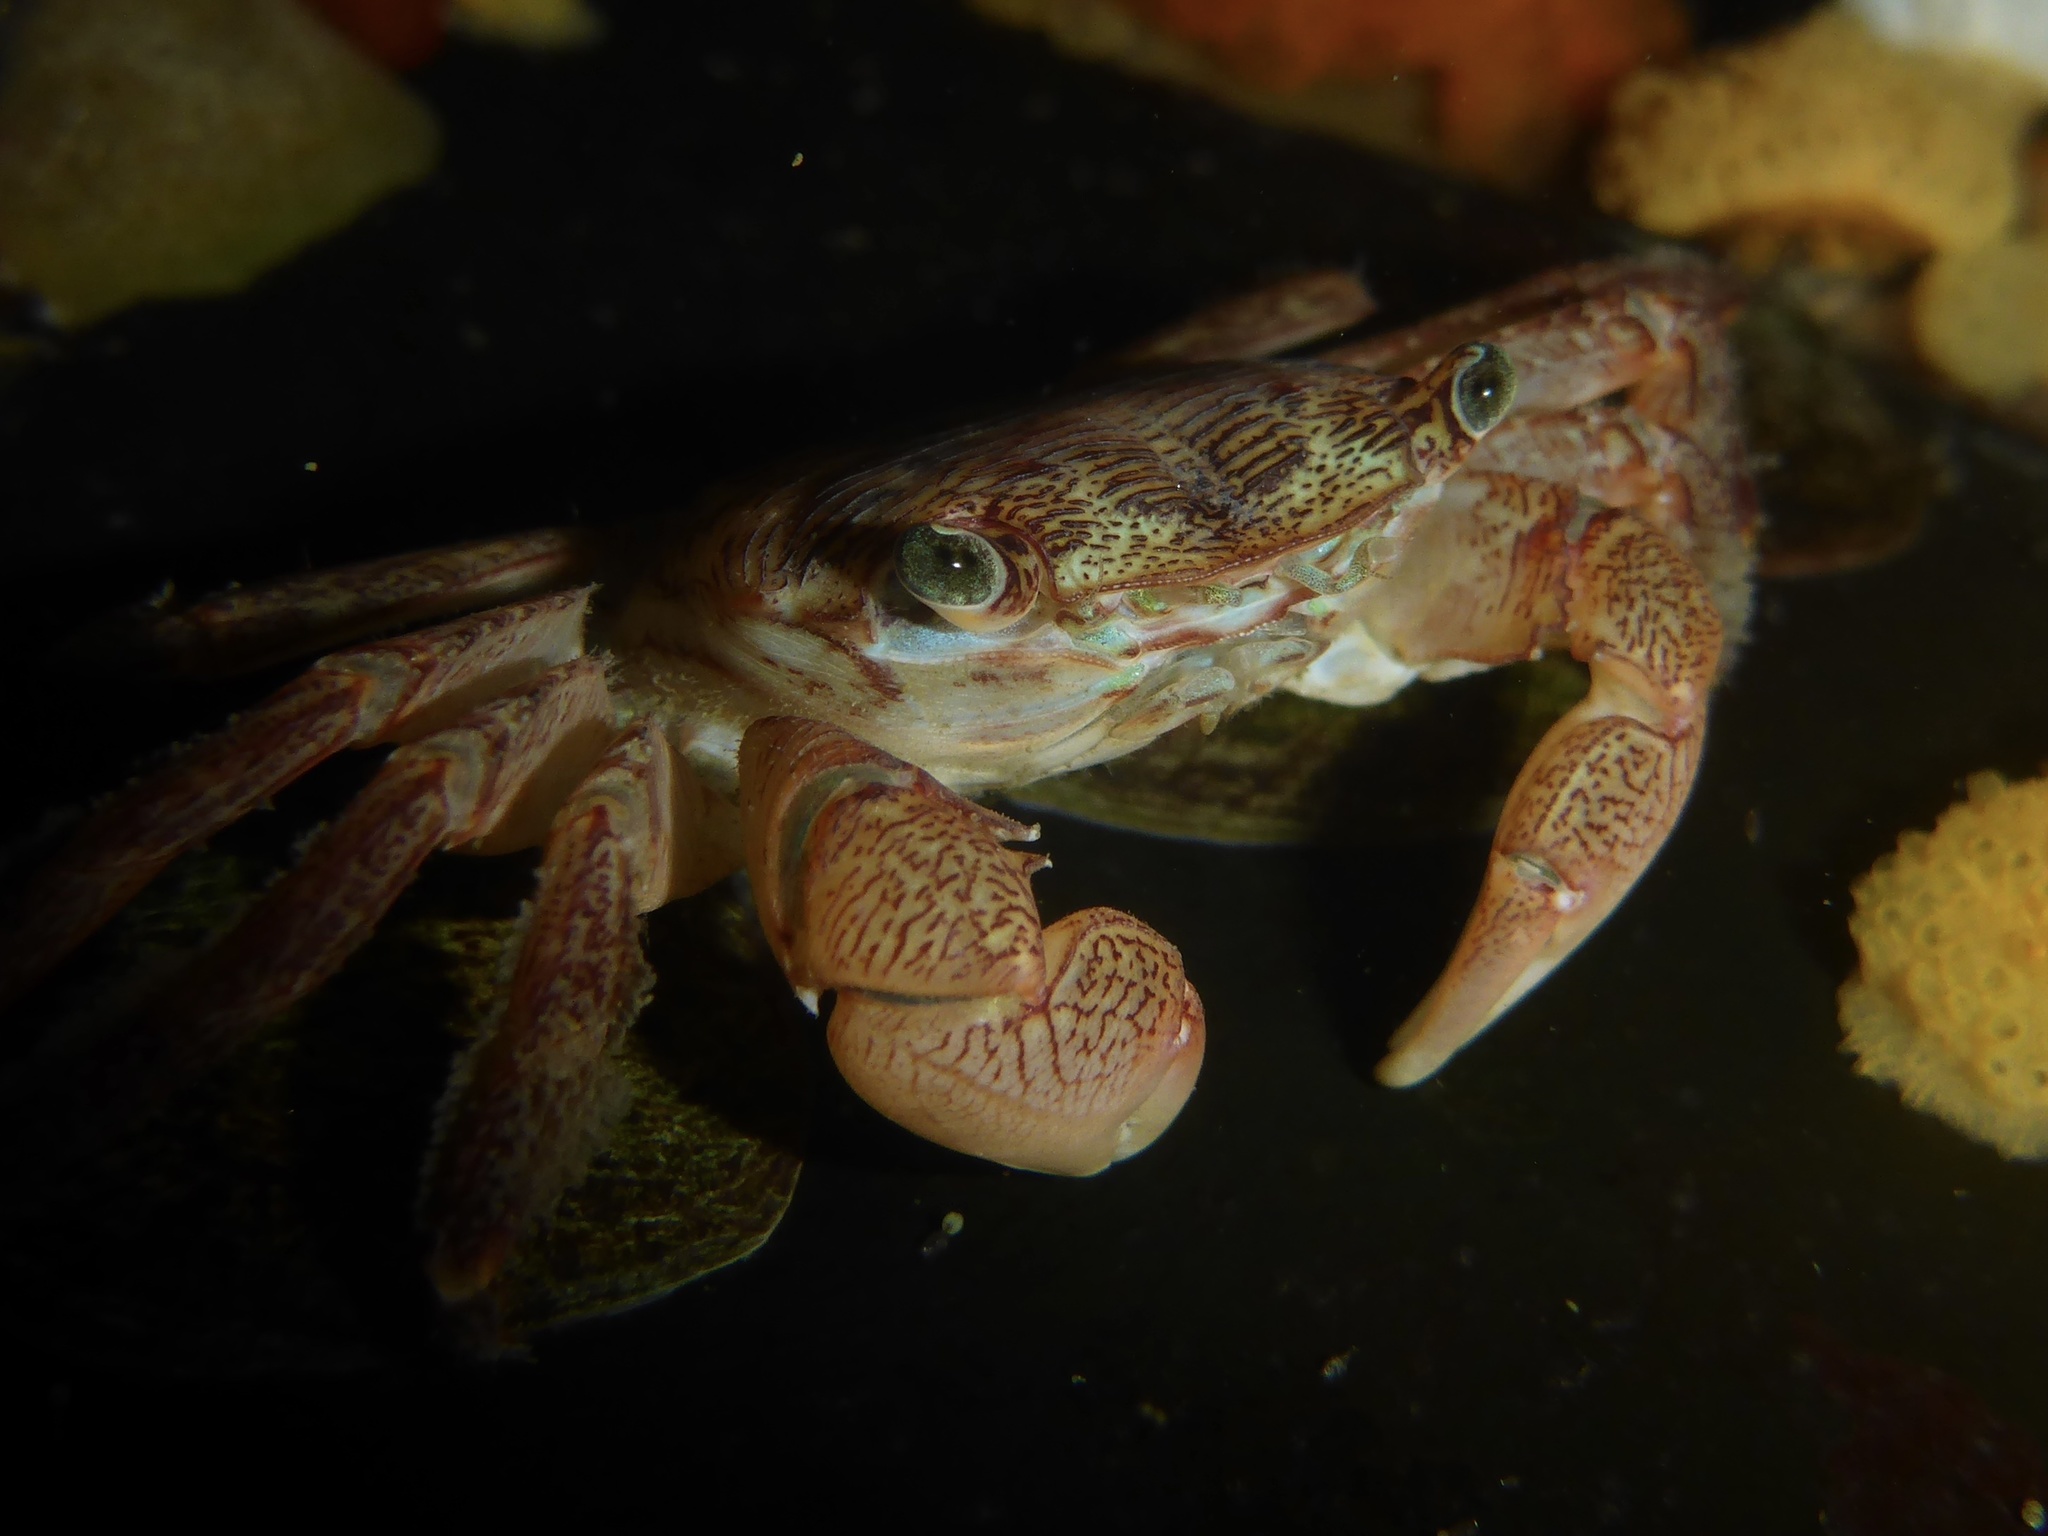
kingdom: Animalia
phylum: Arthropoda
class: Malacostraca
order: Decapoda
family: Grapsidae
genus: Pachygrapsus
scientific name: Pachygrapsus crassipes
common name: Striped shore crab
